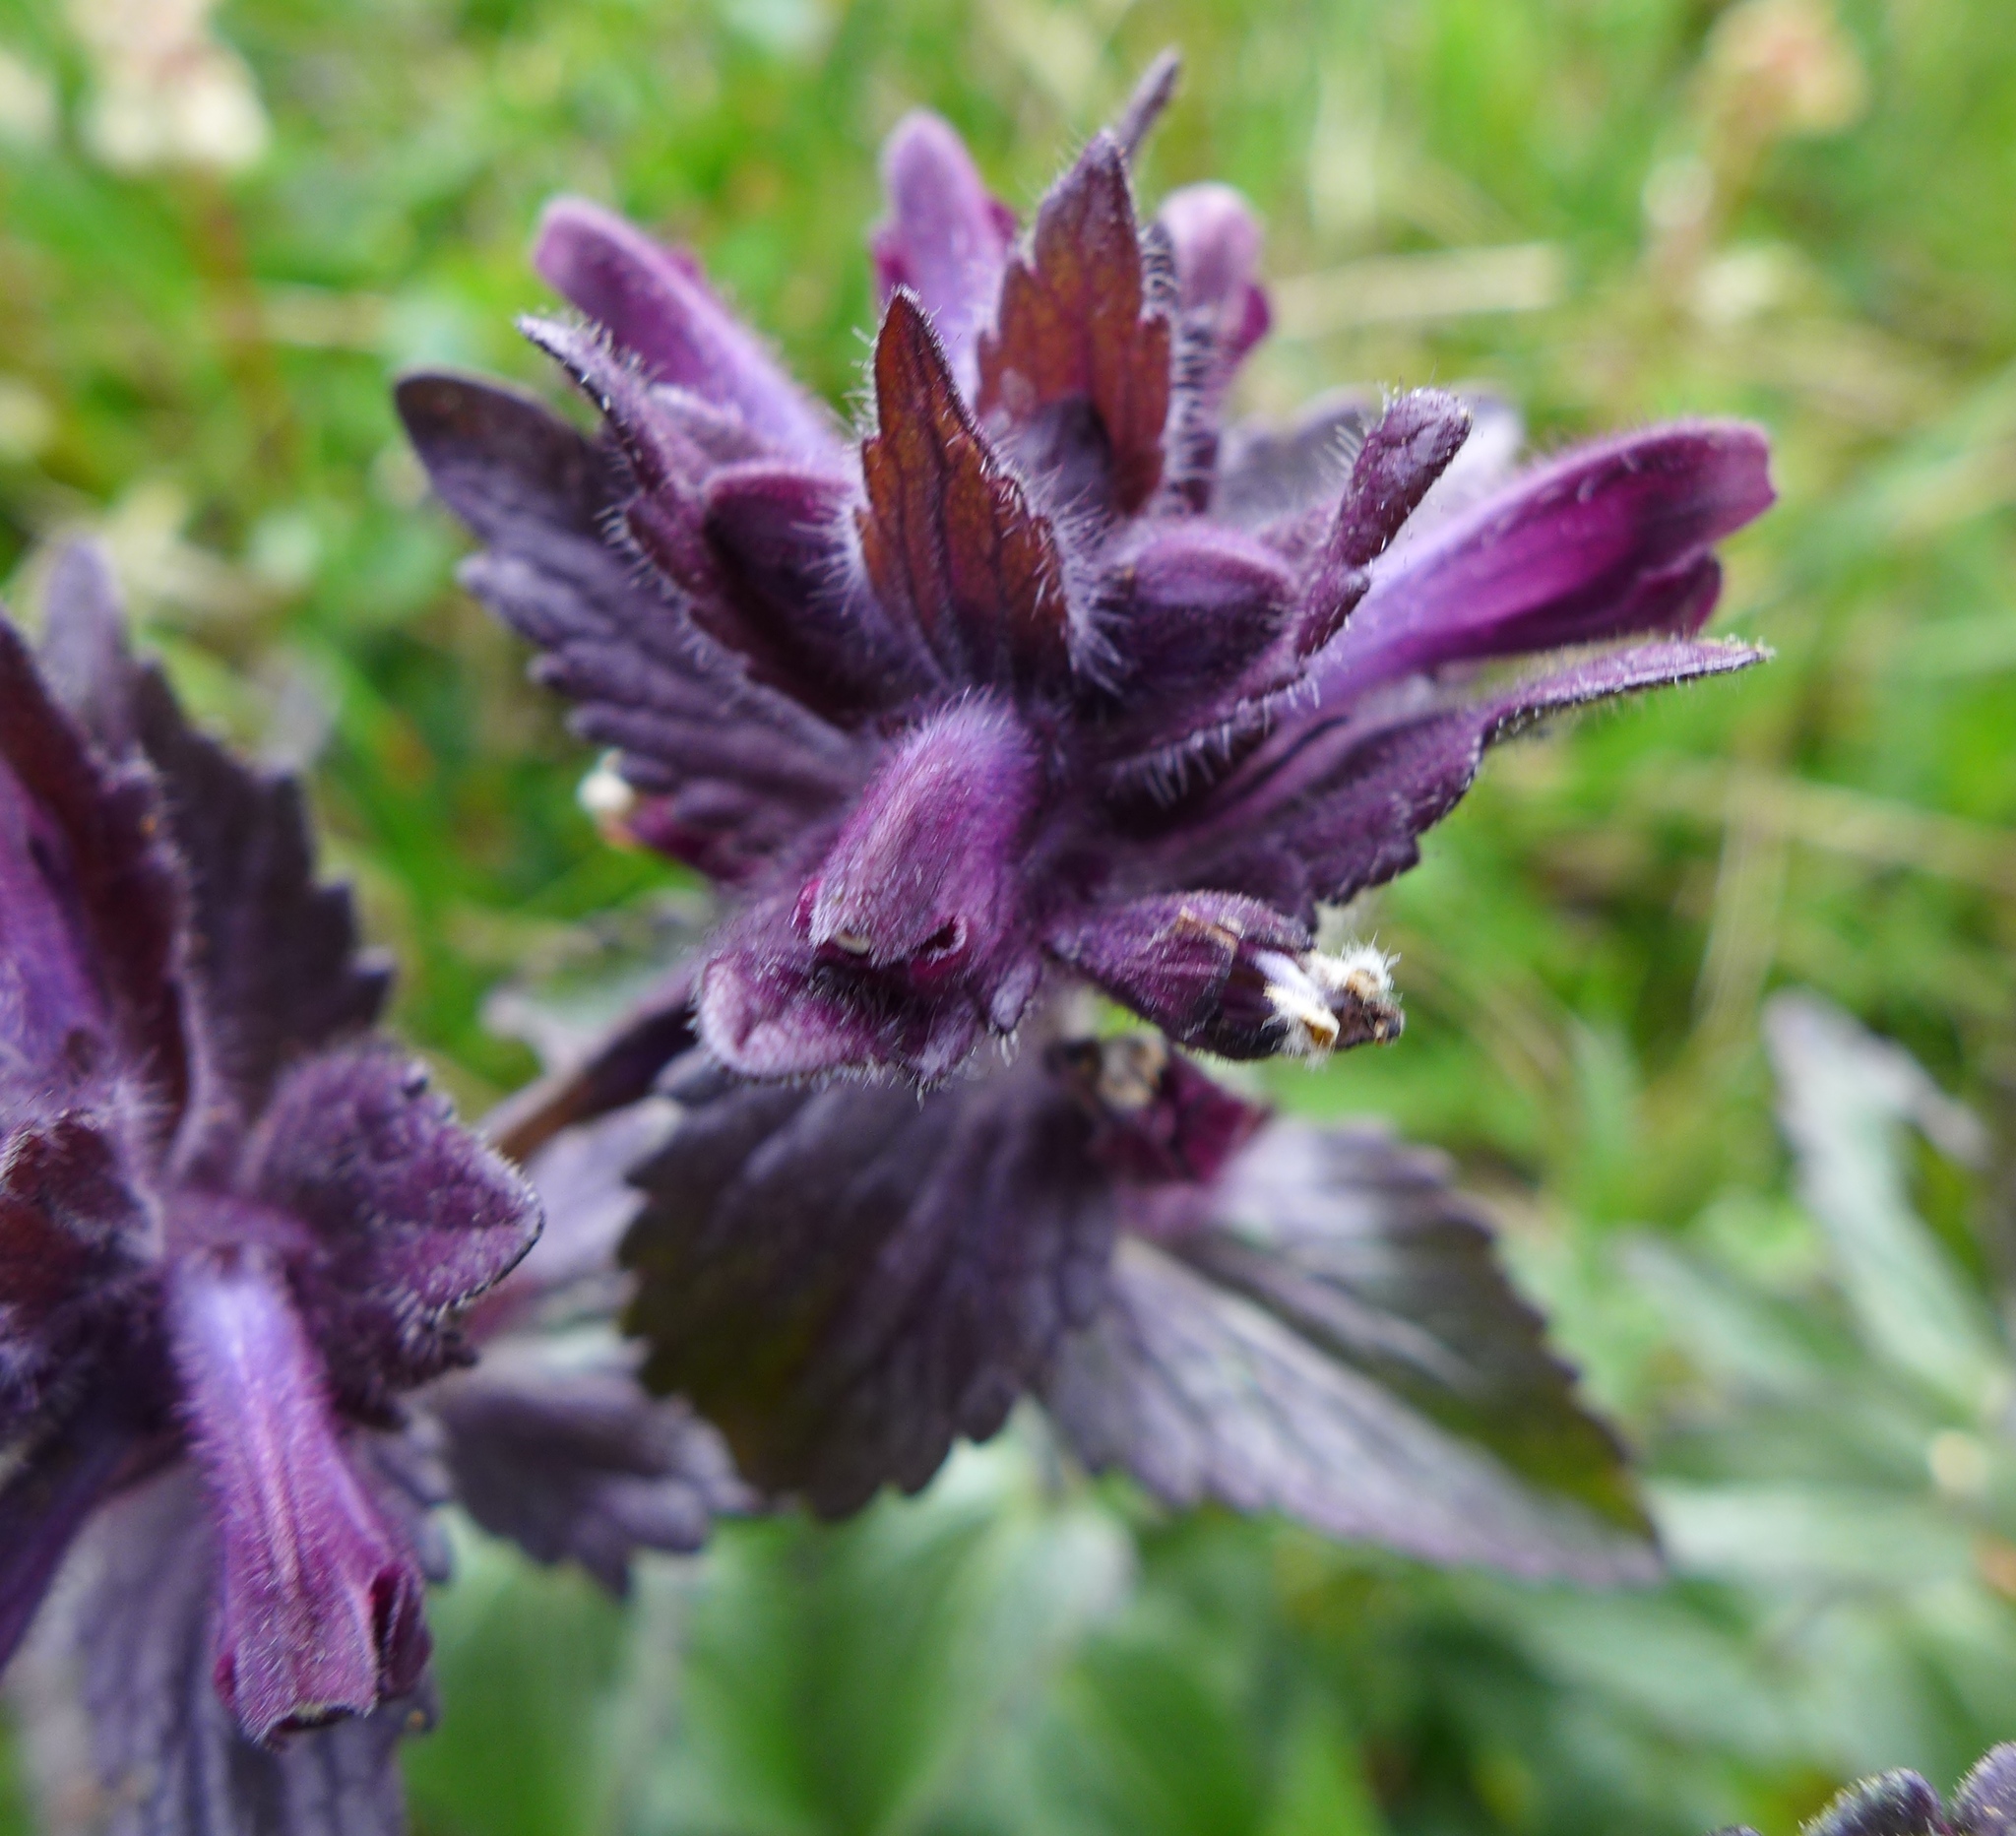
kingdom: Plantae
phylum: Tracheophyta
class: Magnoliopsida
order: Lamiales
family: Orobanchaceae
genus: Bartsia
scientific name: Bartsia alpina
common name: Alpine bartsia
